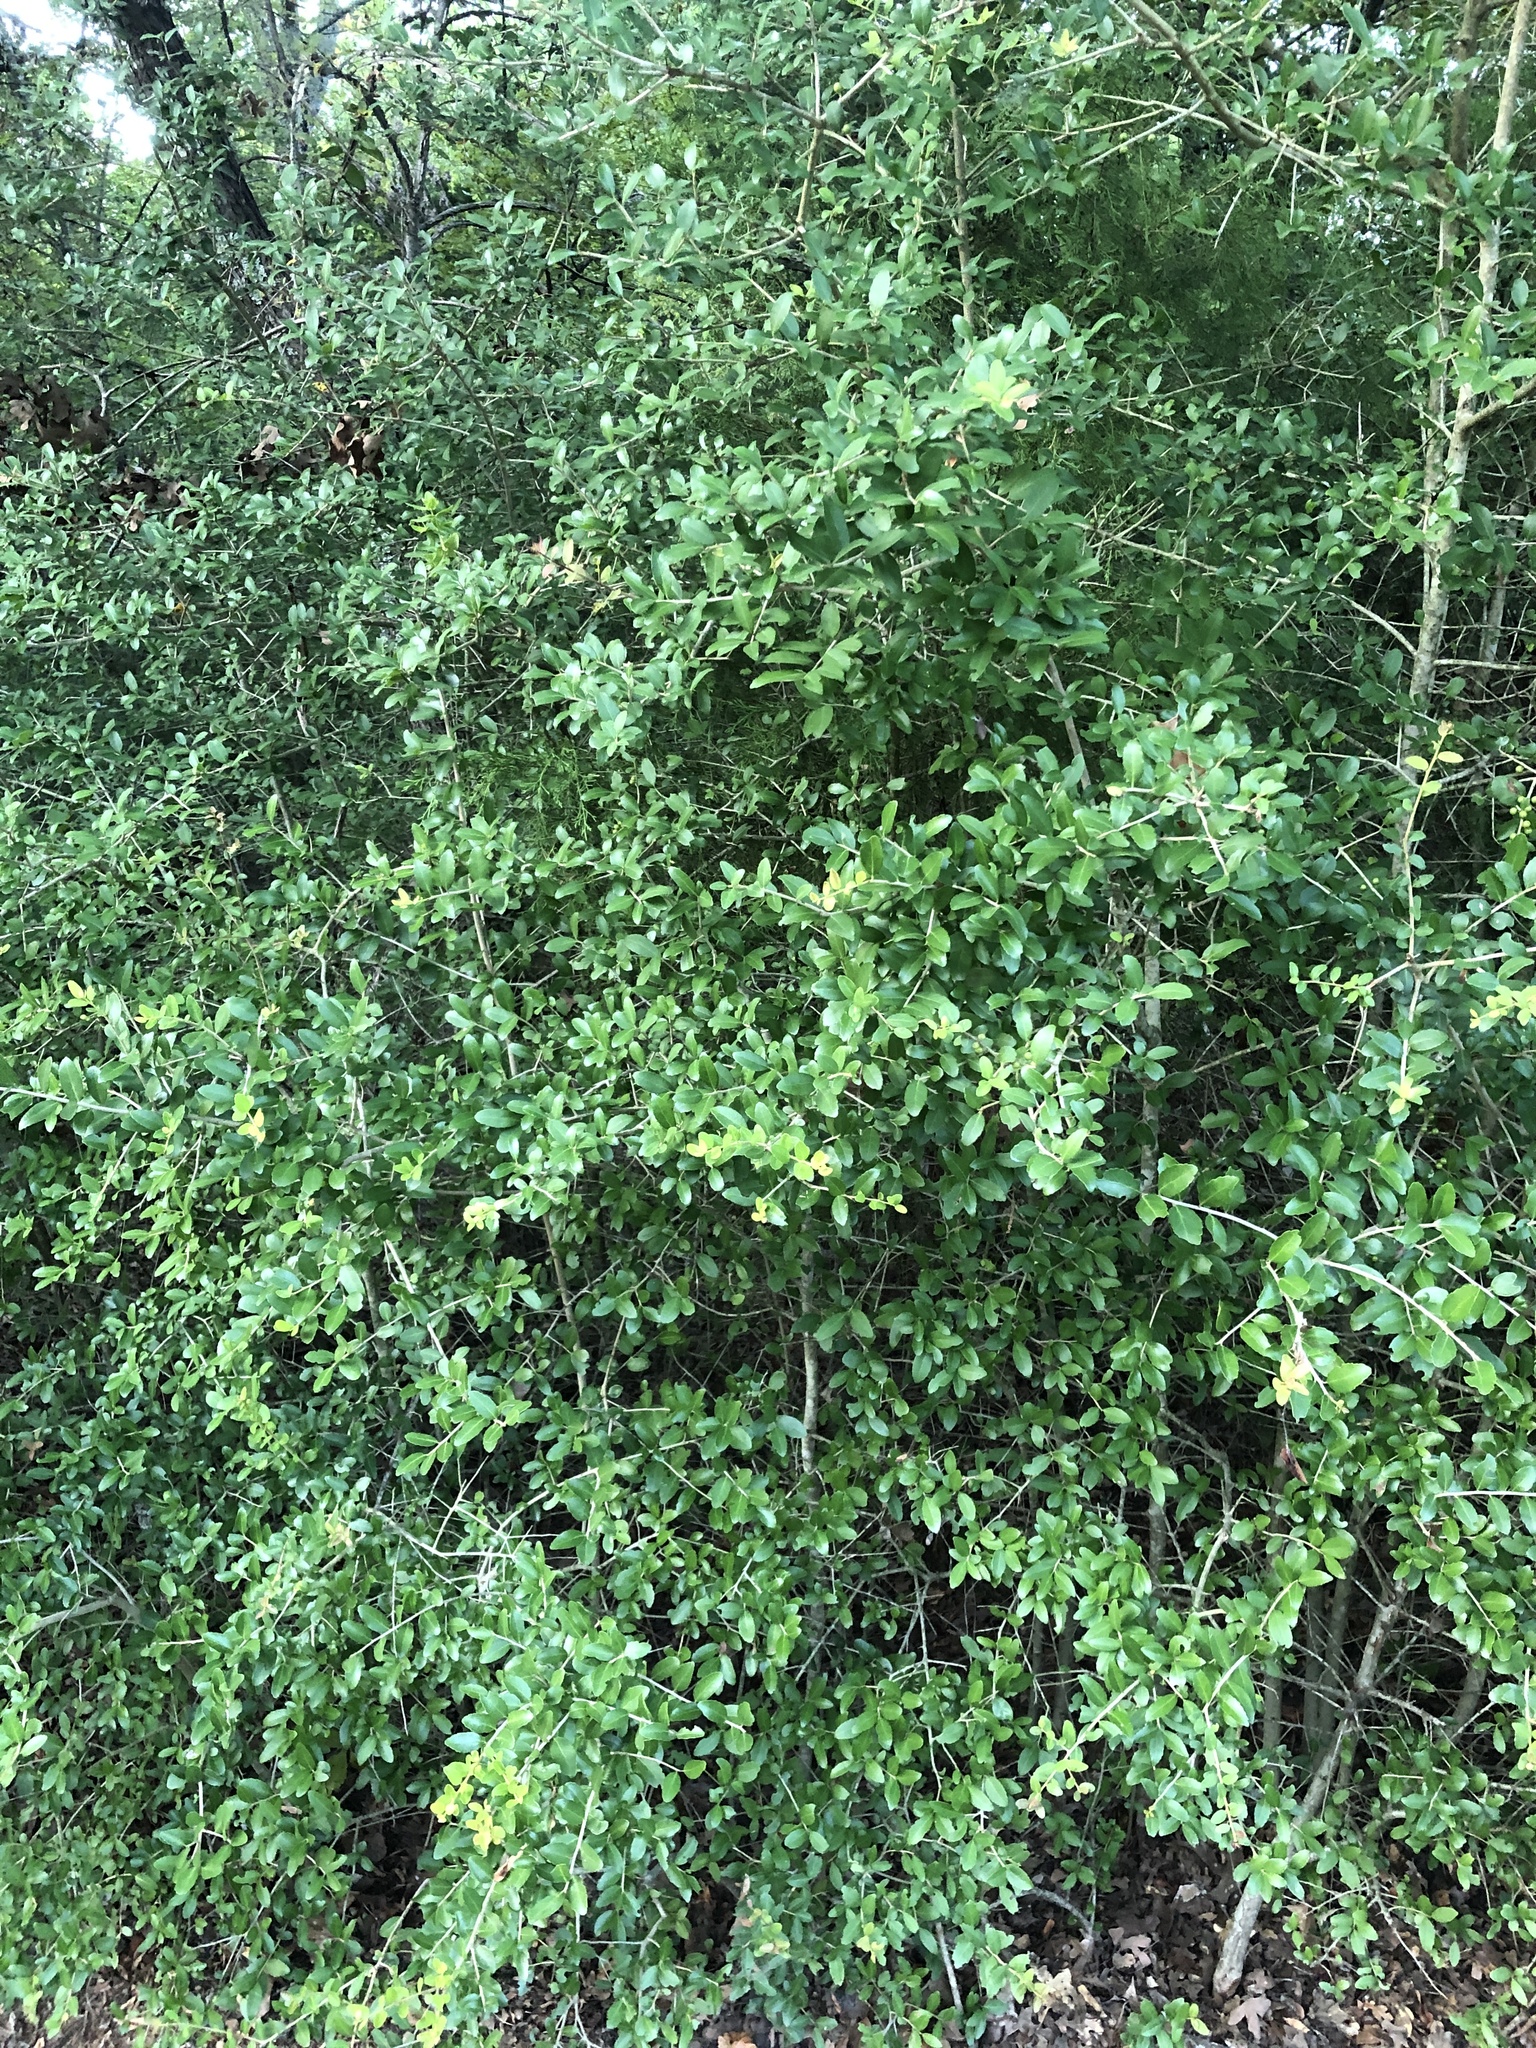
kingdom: Plantae
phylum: Tracheophyta
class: Magnoliopsida
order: Aquifoliales
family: Aquifoliaceae
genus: Ilex
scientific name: Ilex vomitoria
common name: Yaupon holly
